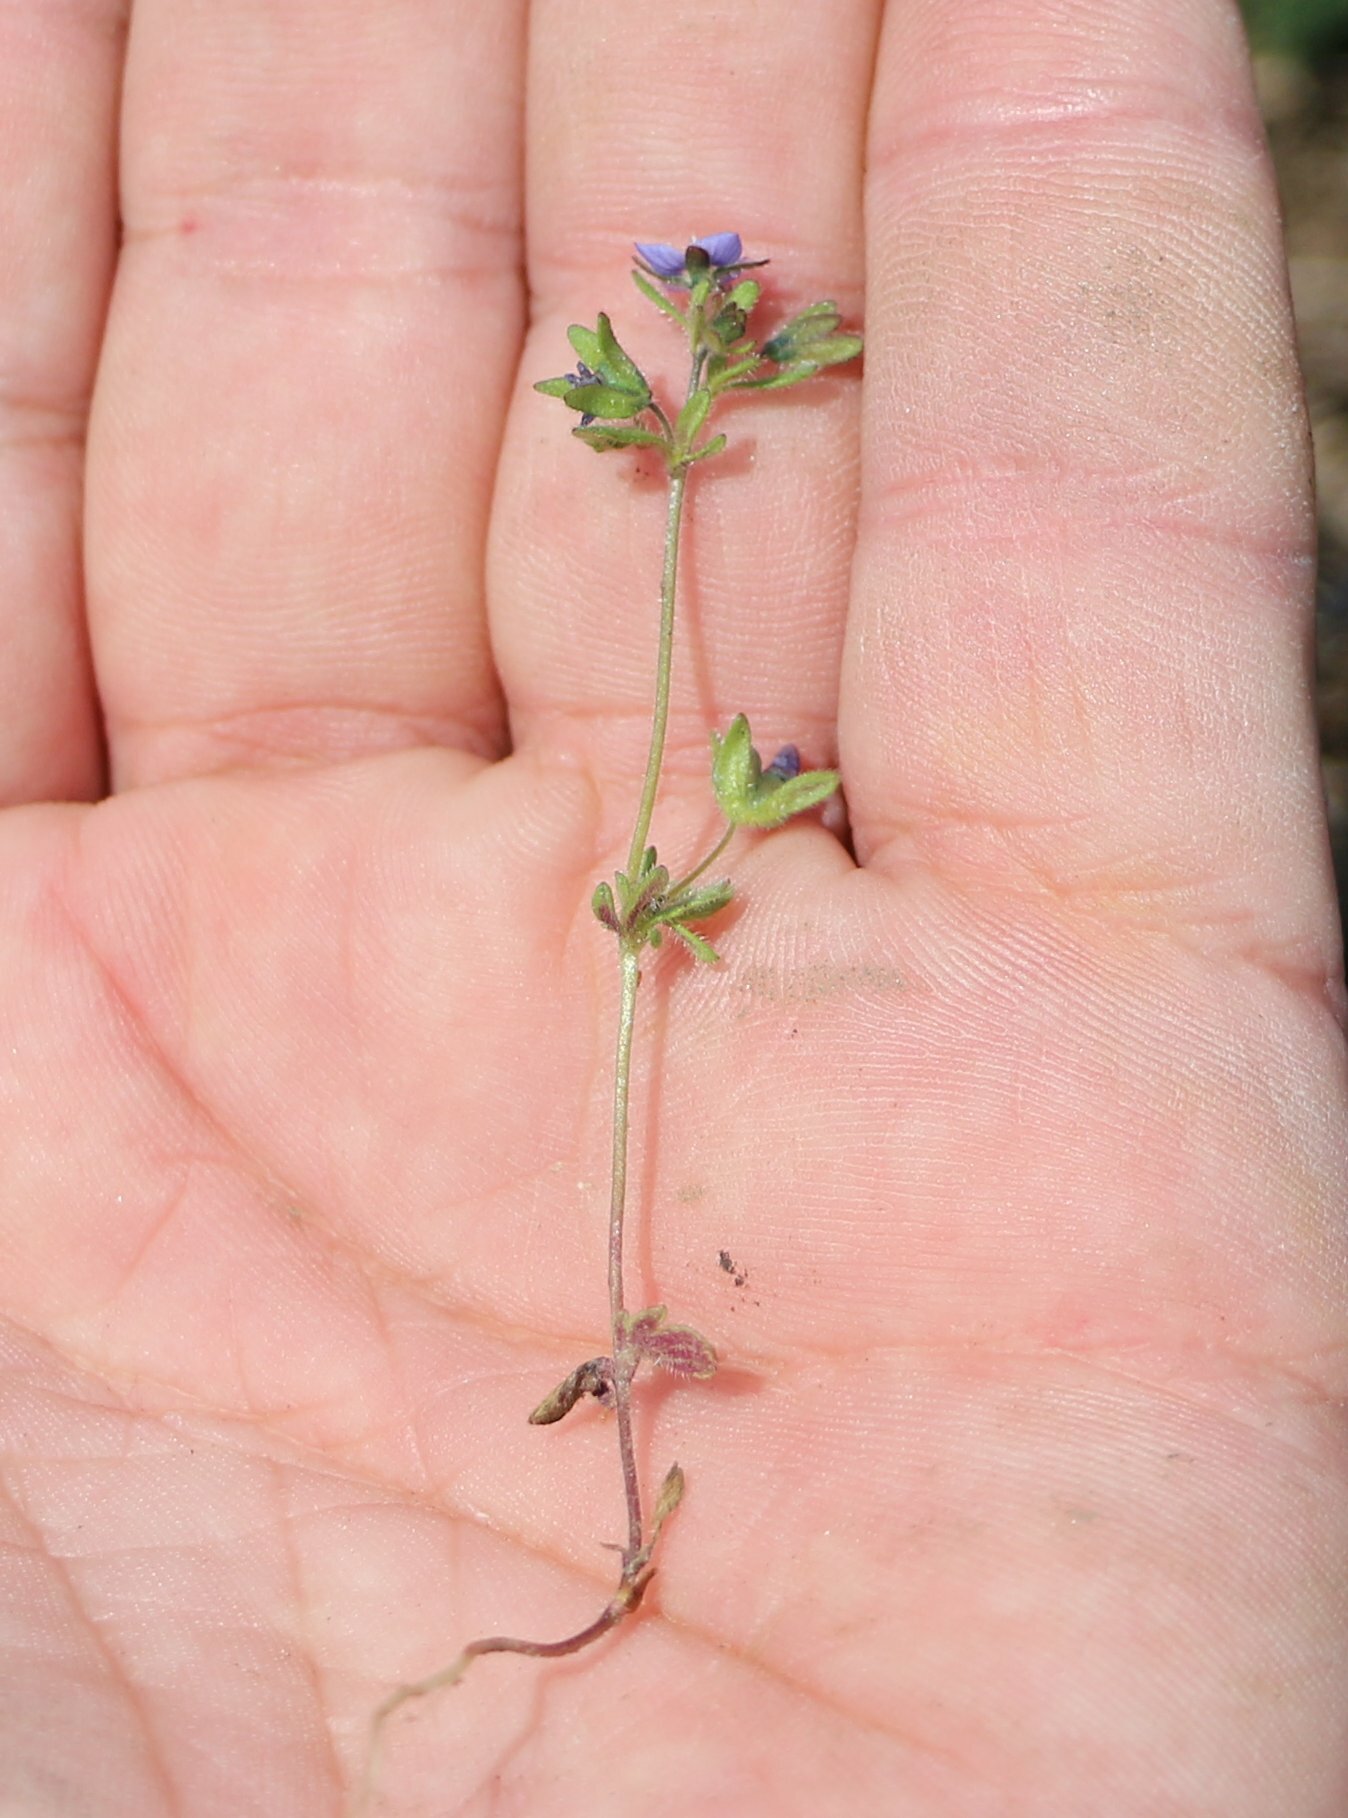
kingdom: Plantae
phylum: Tracheophyta
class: Magnoliopsida
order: Lamiales
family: Plantaginaceae
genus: Veronica
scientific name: Veronica triphyllos
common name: Fingered speedwell
